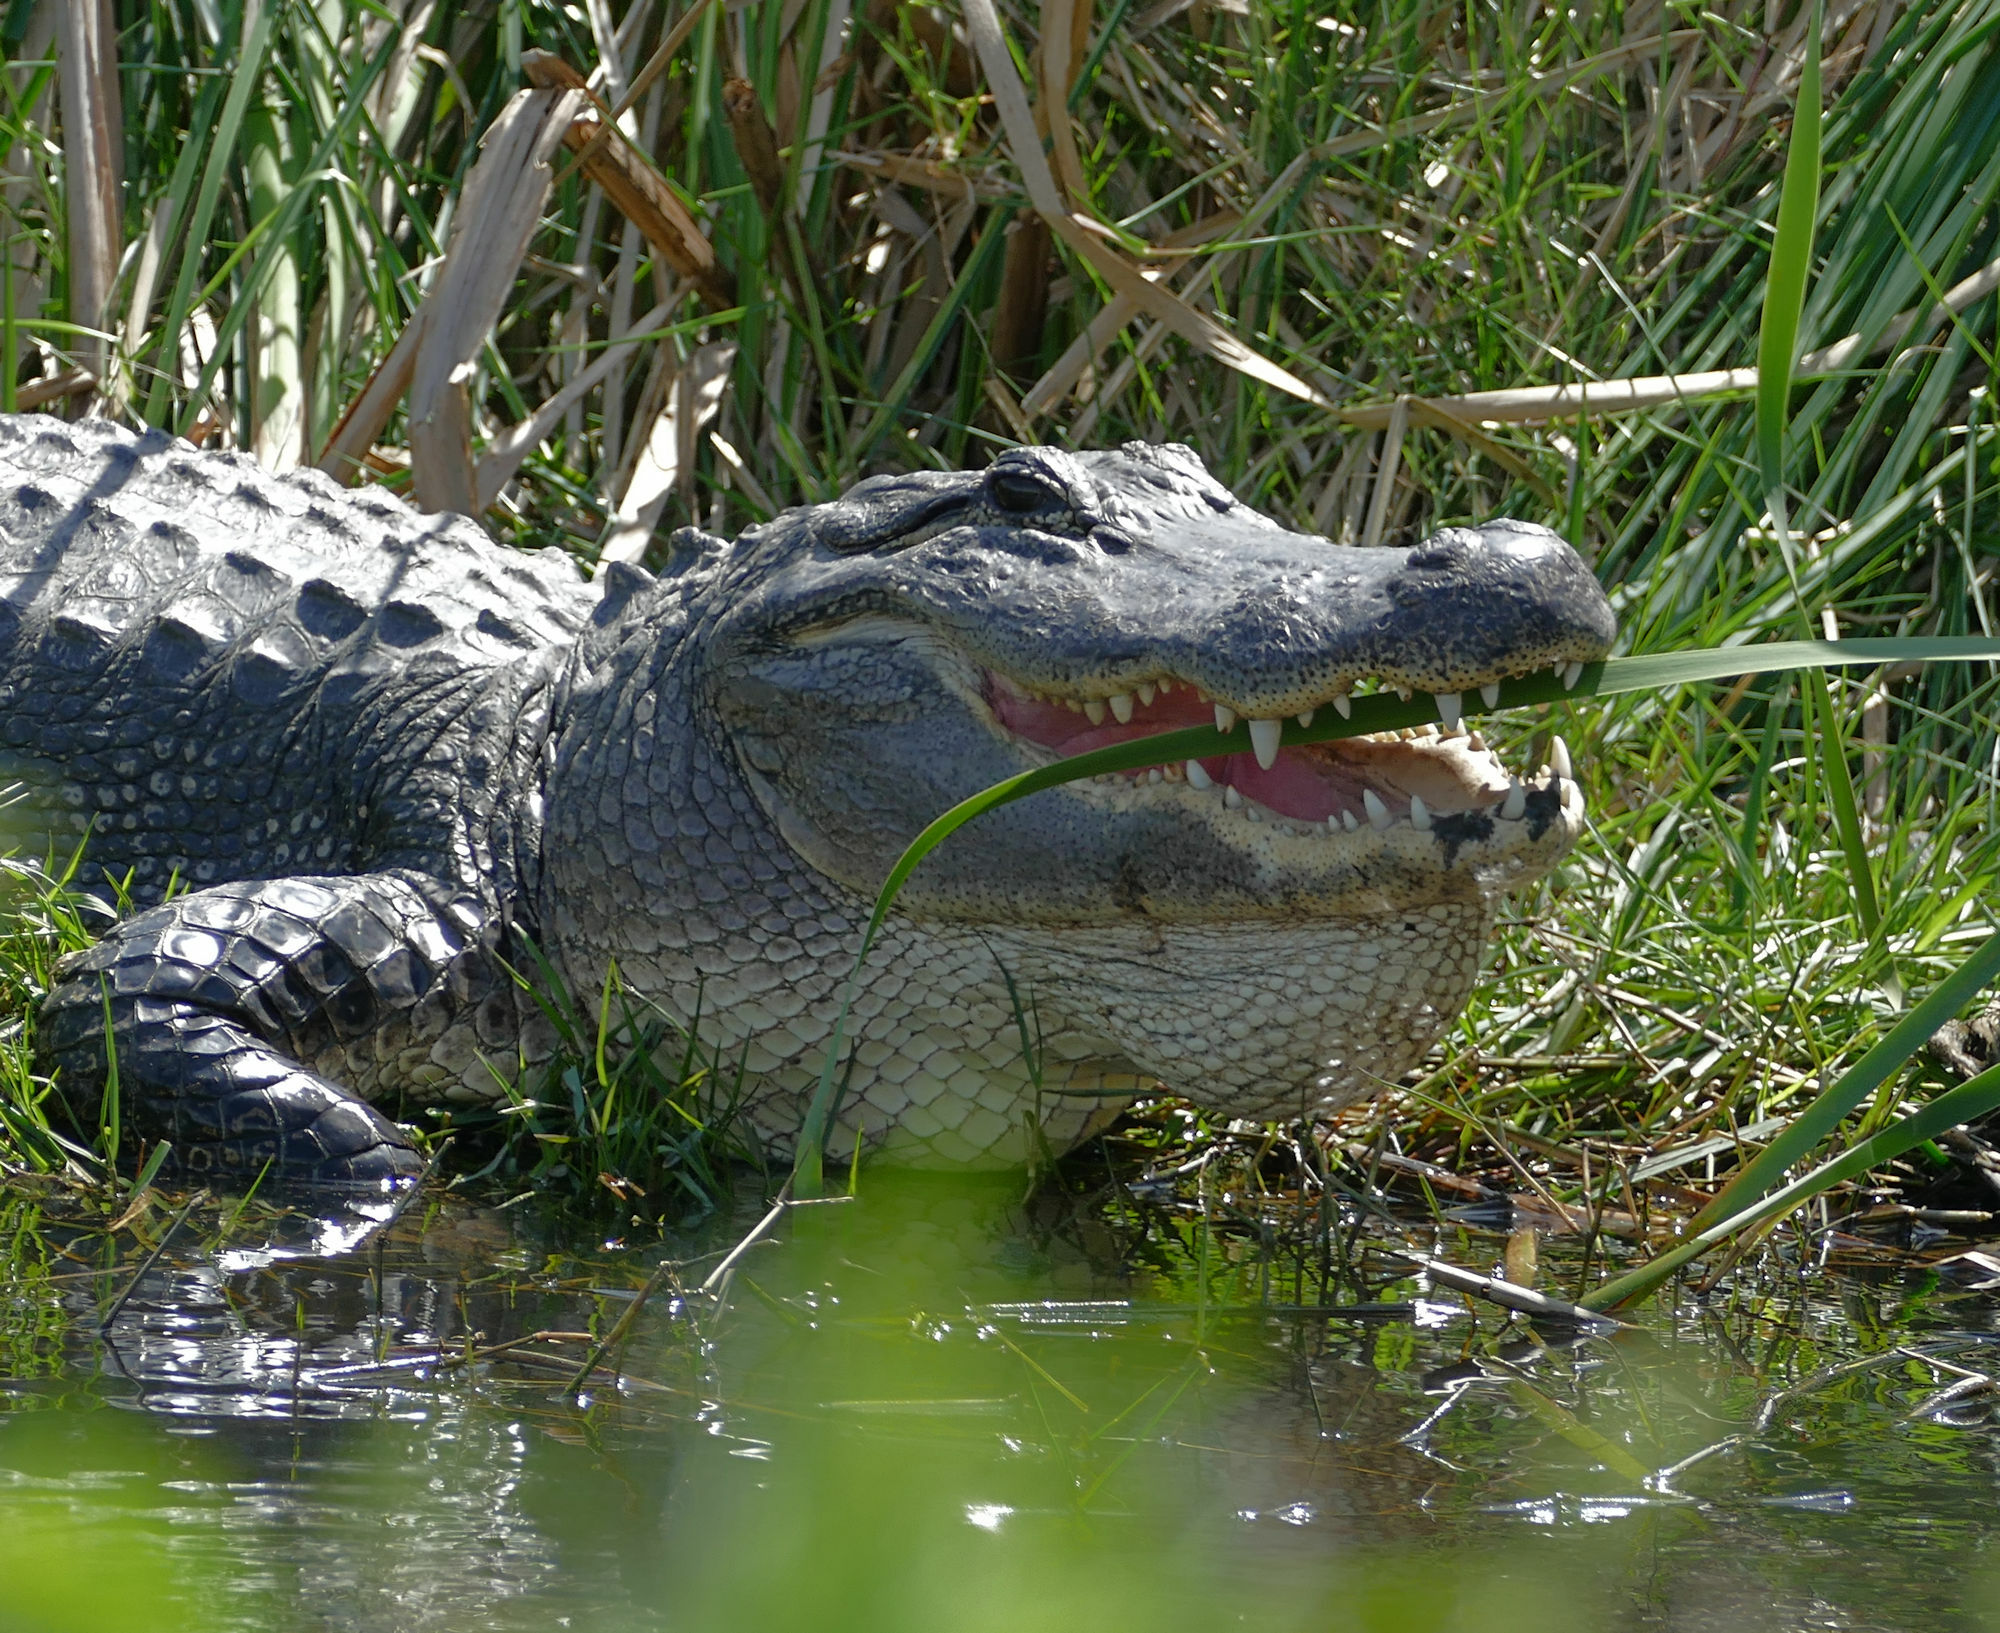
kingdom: Animalia
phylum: Chordata
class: Crocodylia
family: Alligatoridae
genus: Alligator
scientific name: Alligator mississippiensis
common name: American alligator
